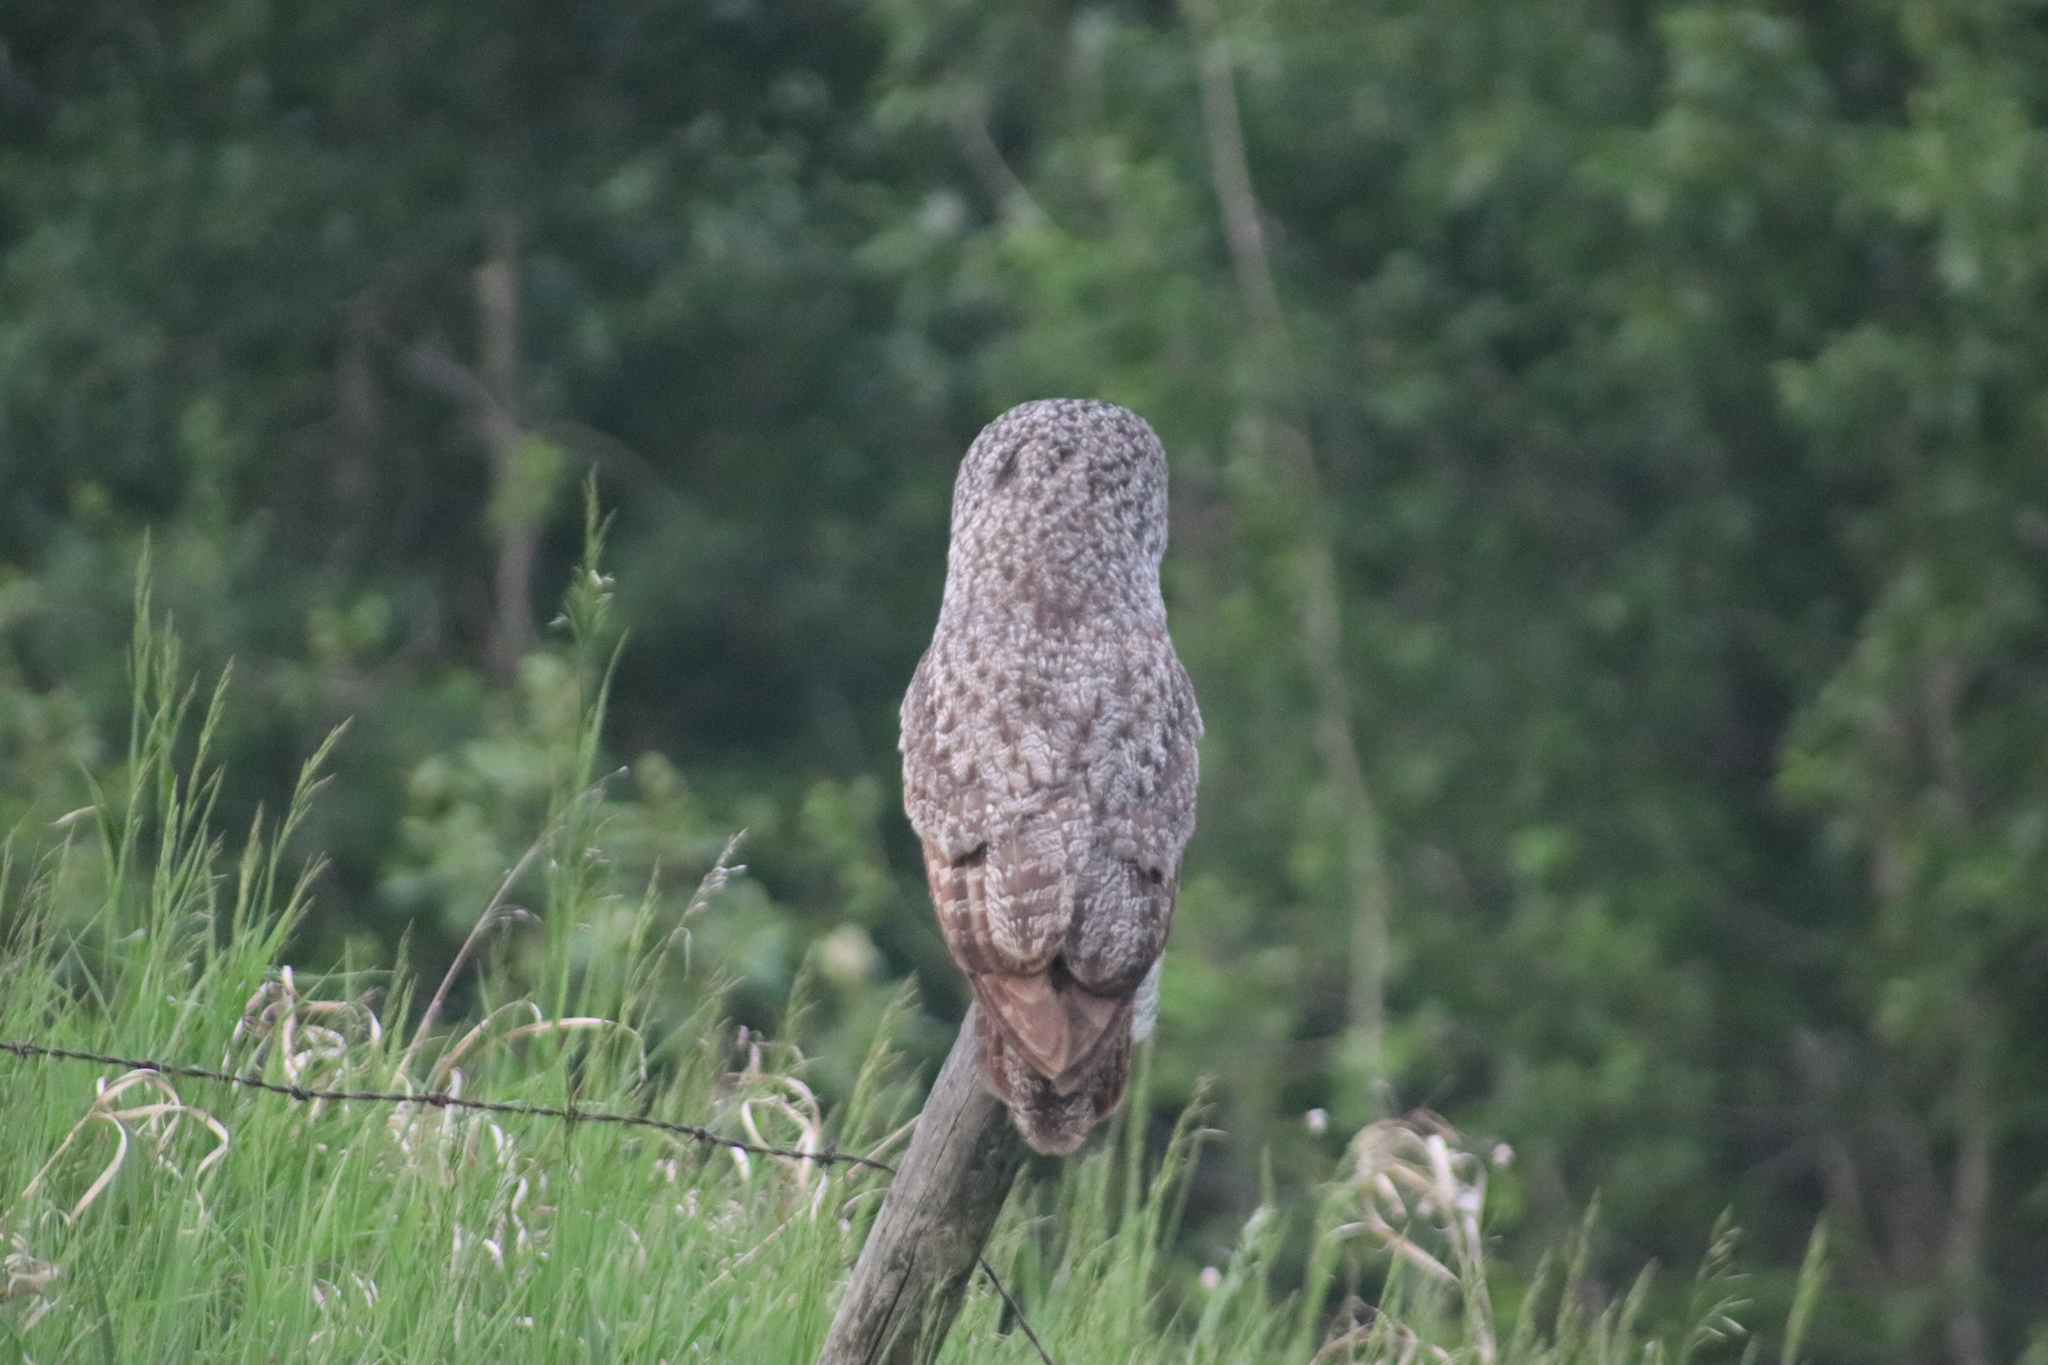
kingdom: Animalia
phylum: Chordata
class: Aves
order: Strigiformes
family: Strigidae
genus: Strix
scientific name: Strix nebulosa
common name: Great grey owl
